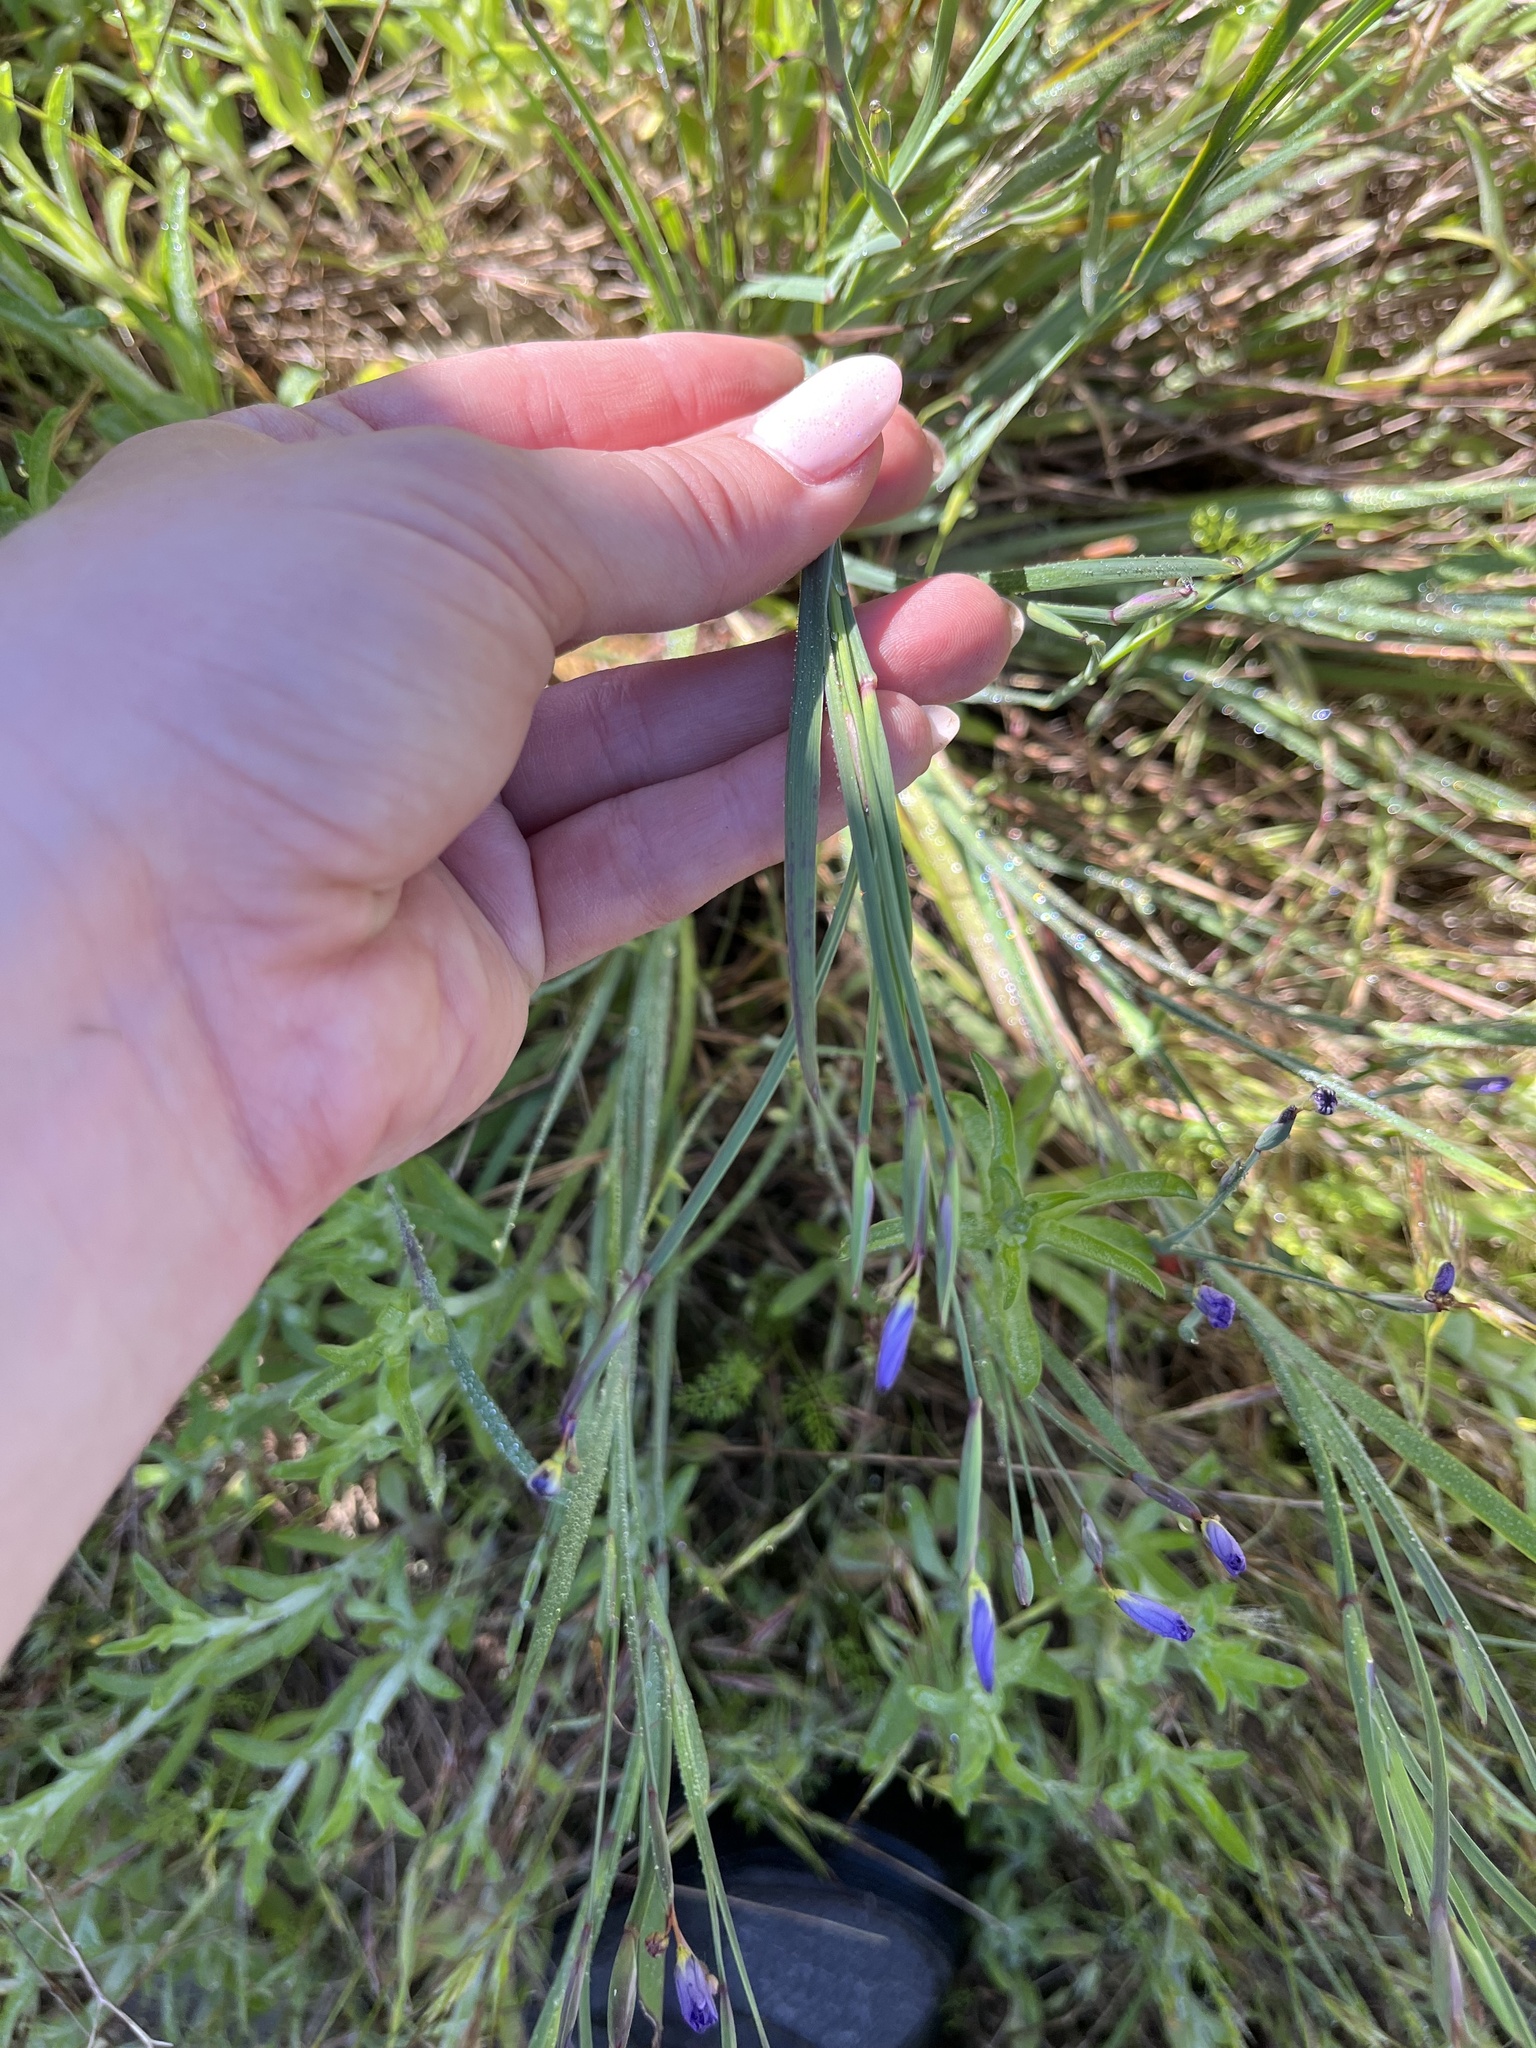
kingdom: Plantae
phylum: Tracheophyta
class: Liliopsida
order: Asparagales
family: Iridaceae
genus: Sisyrinchium
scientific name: Sisyrinchium bellum
